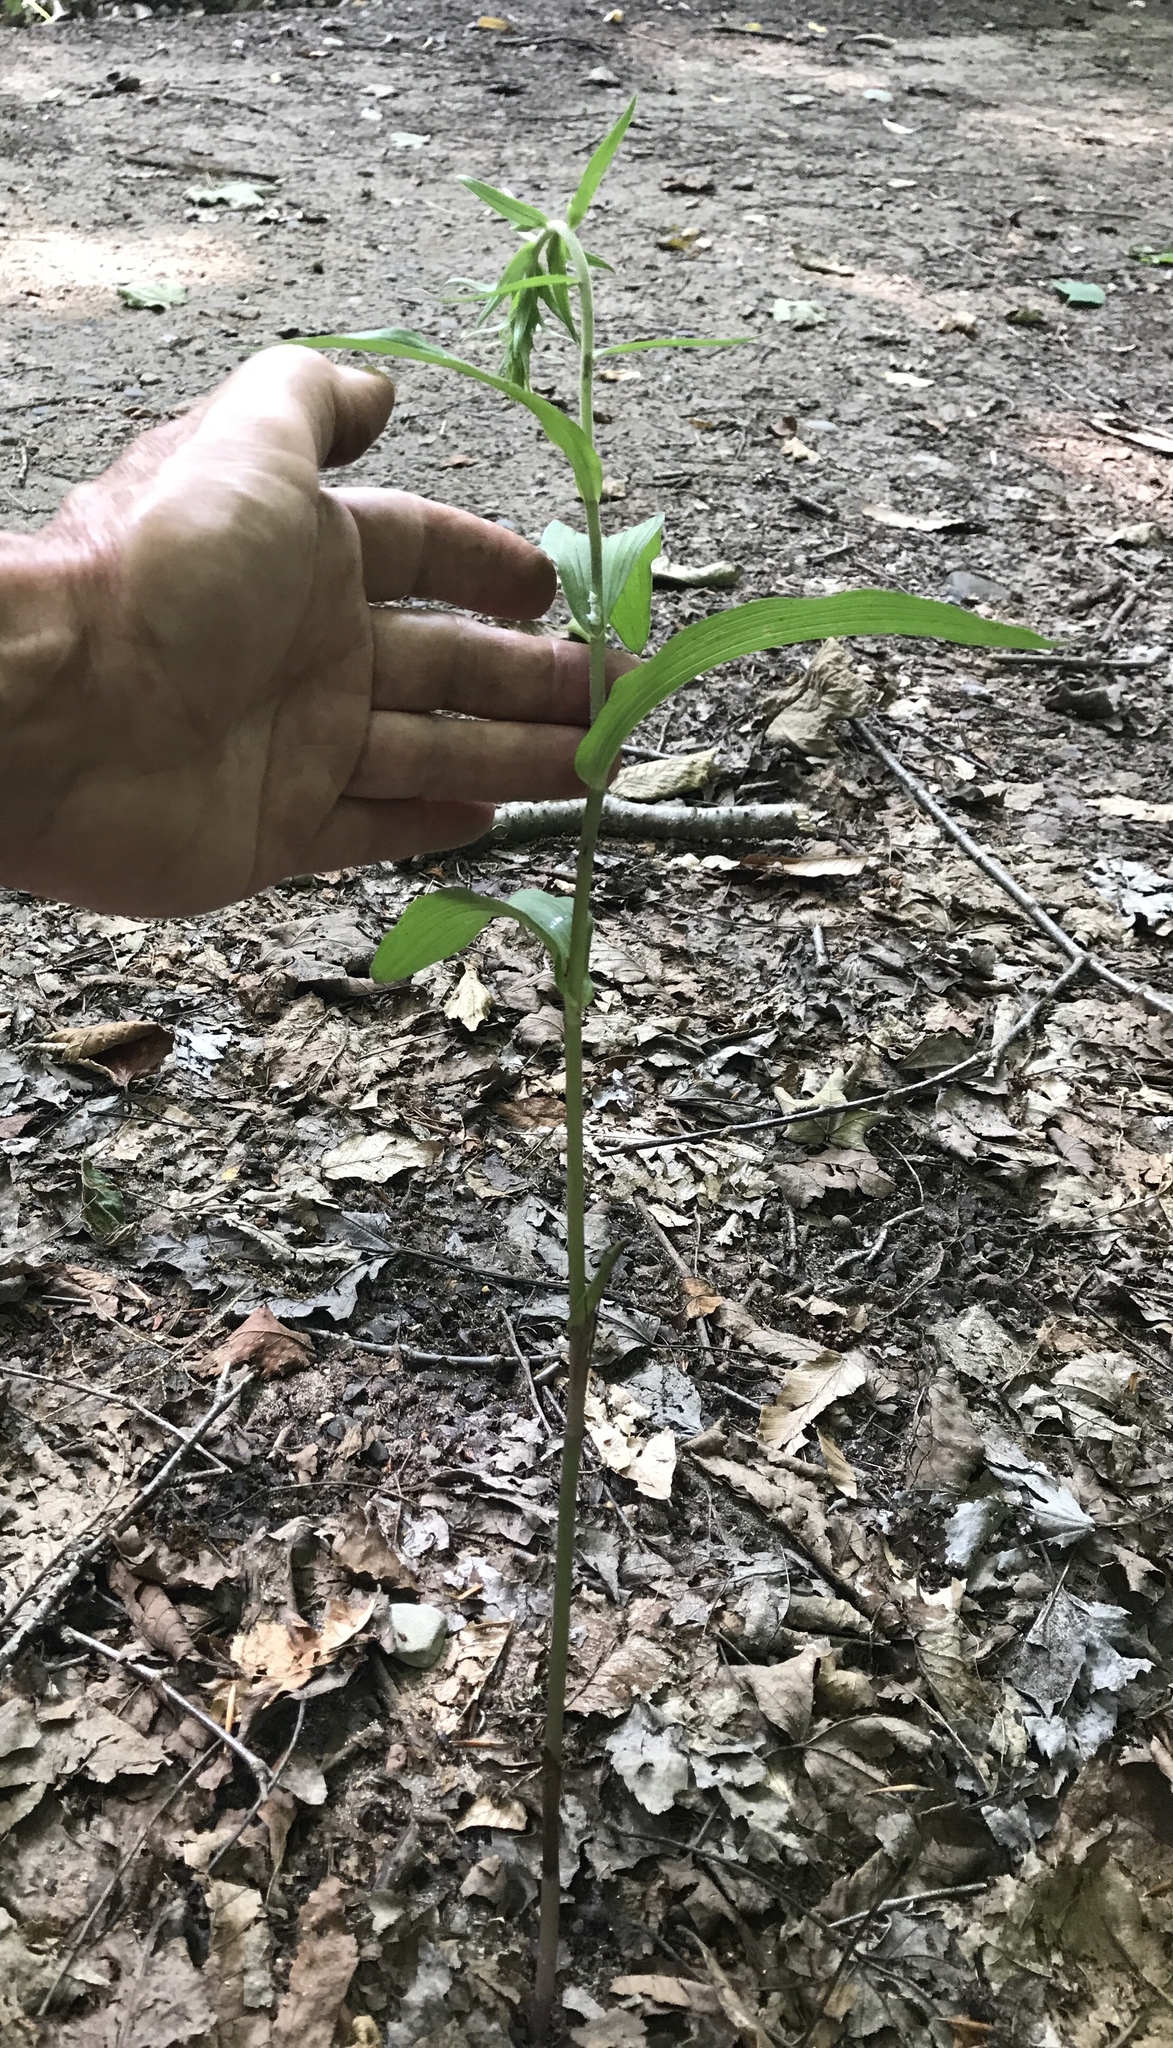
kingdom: Plantae
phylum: Tracheophyta
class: Liliopsida
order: Asparagales
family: Orchidaceae
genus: Epipactis
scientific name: Epipactis helleborine
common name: Broad-leaved helleborine
